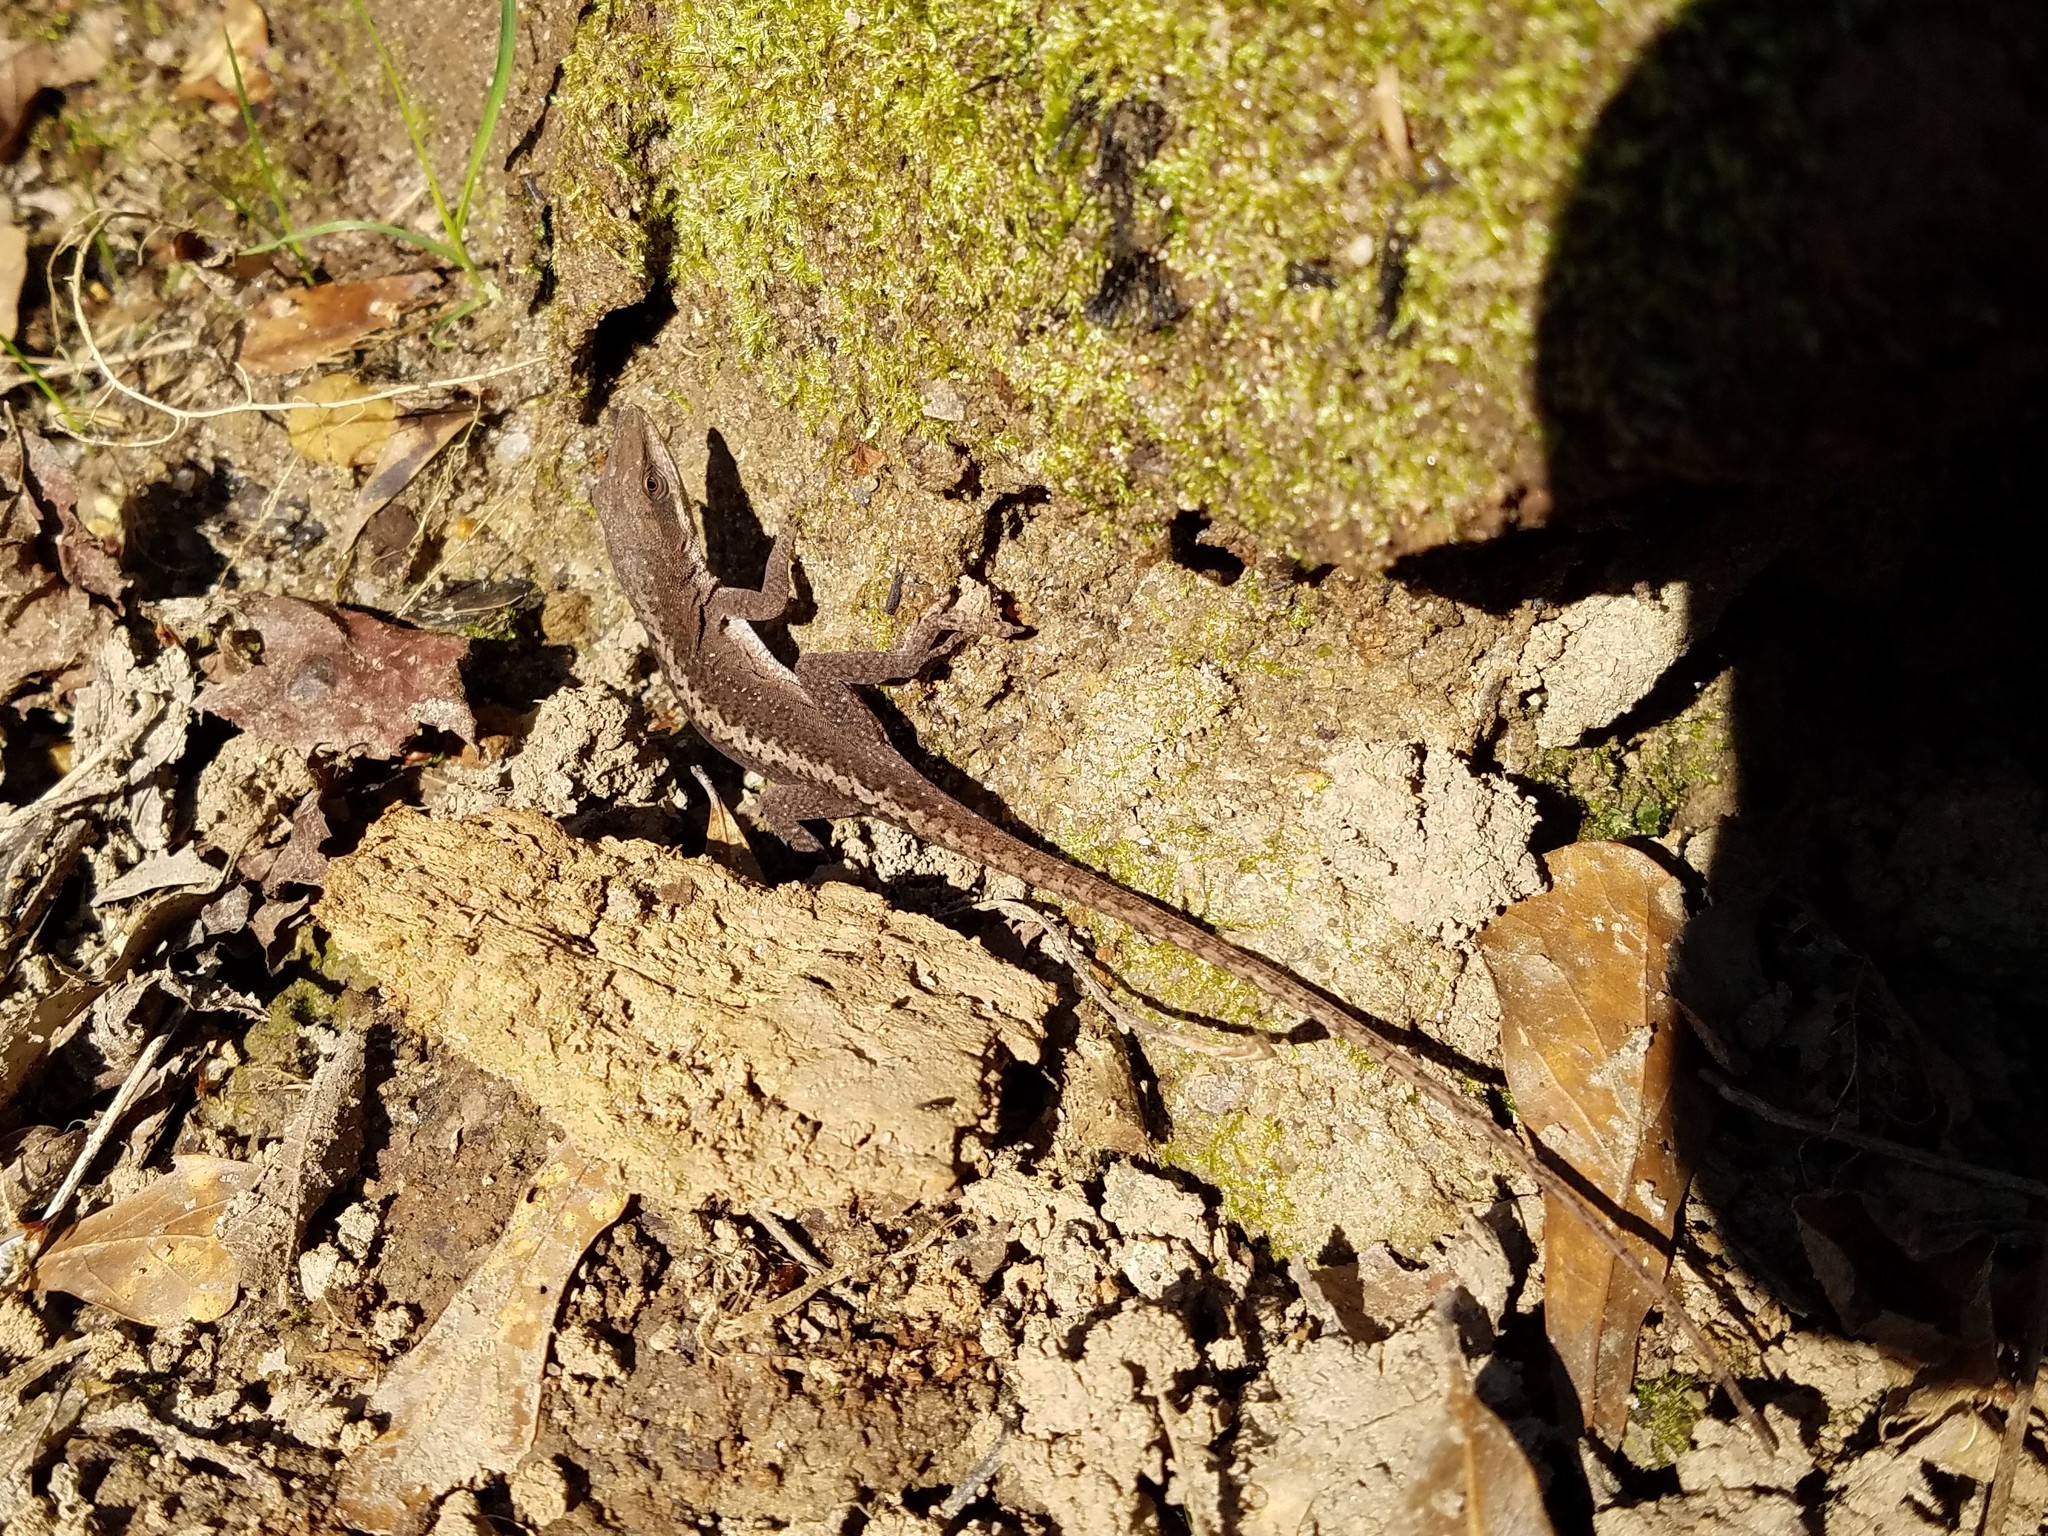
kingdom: Animalia
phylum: Chordata
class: Squamata
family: Dactyloidae
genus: Anolis
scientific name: Anolis carolinensis
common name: Green anole
